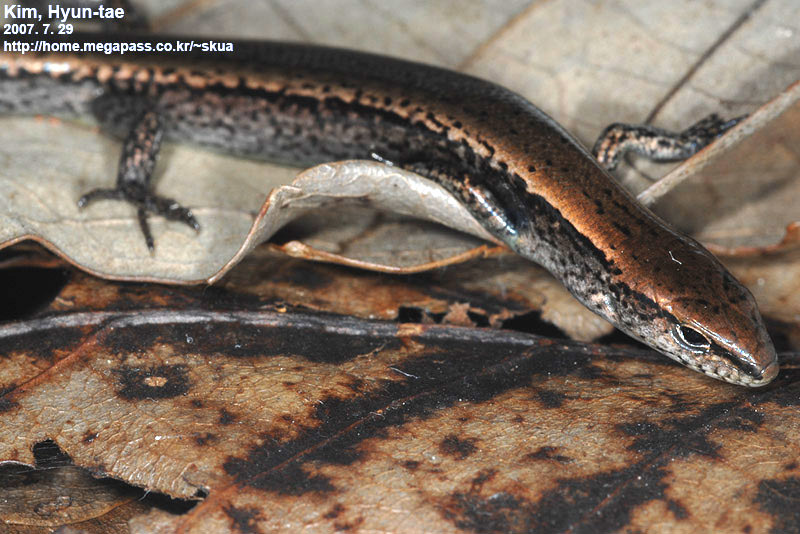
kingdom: Animalia
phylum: Chordata
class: Squamata
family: Scincidae
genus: Scincella
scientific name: Scincella vandenburghi
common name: Tsushima smooth skink
